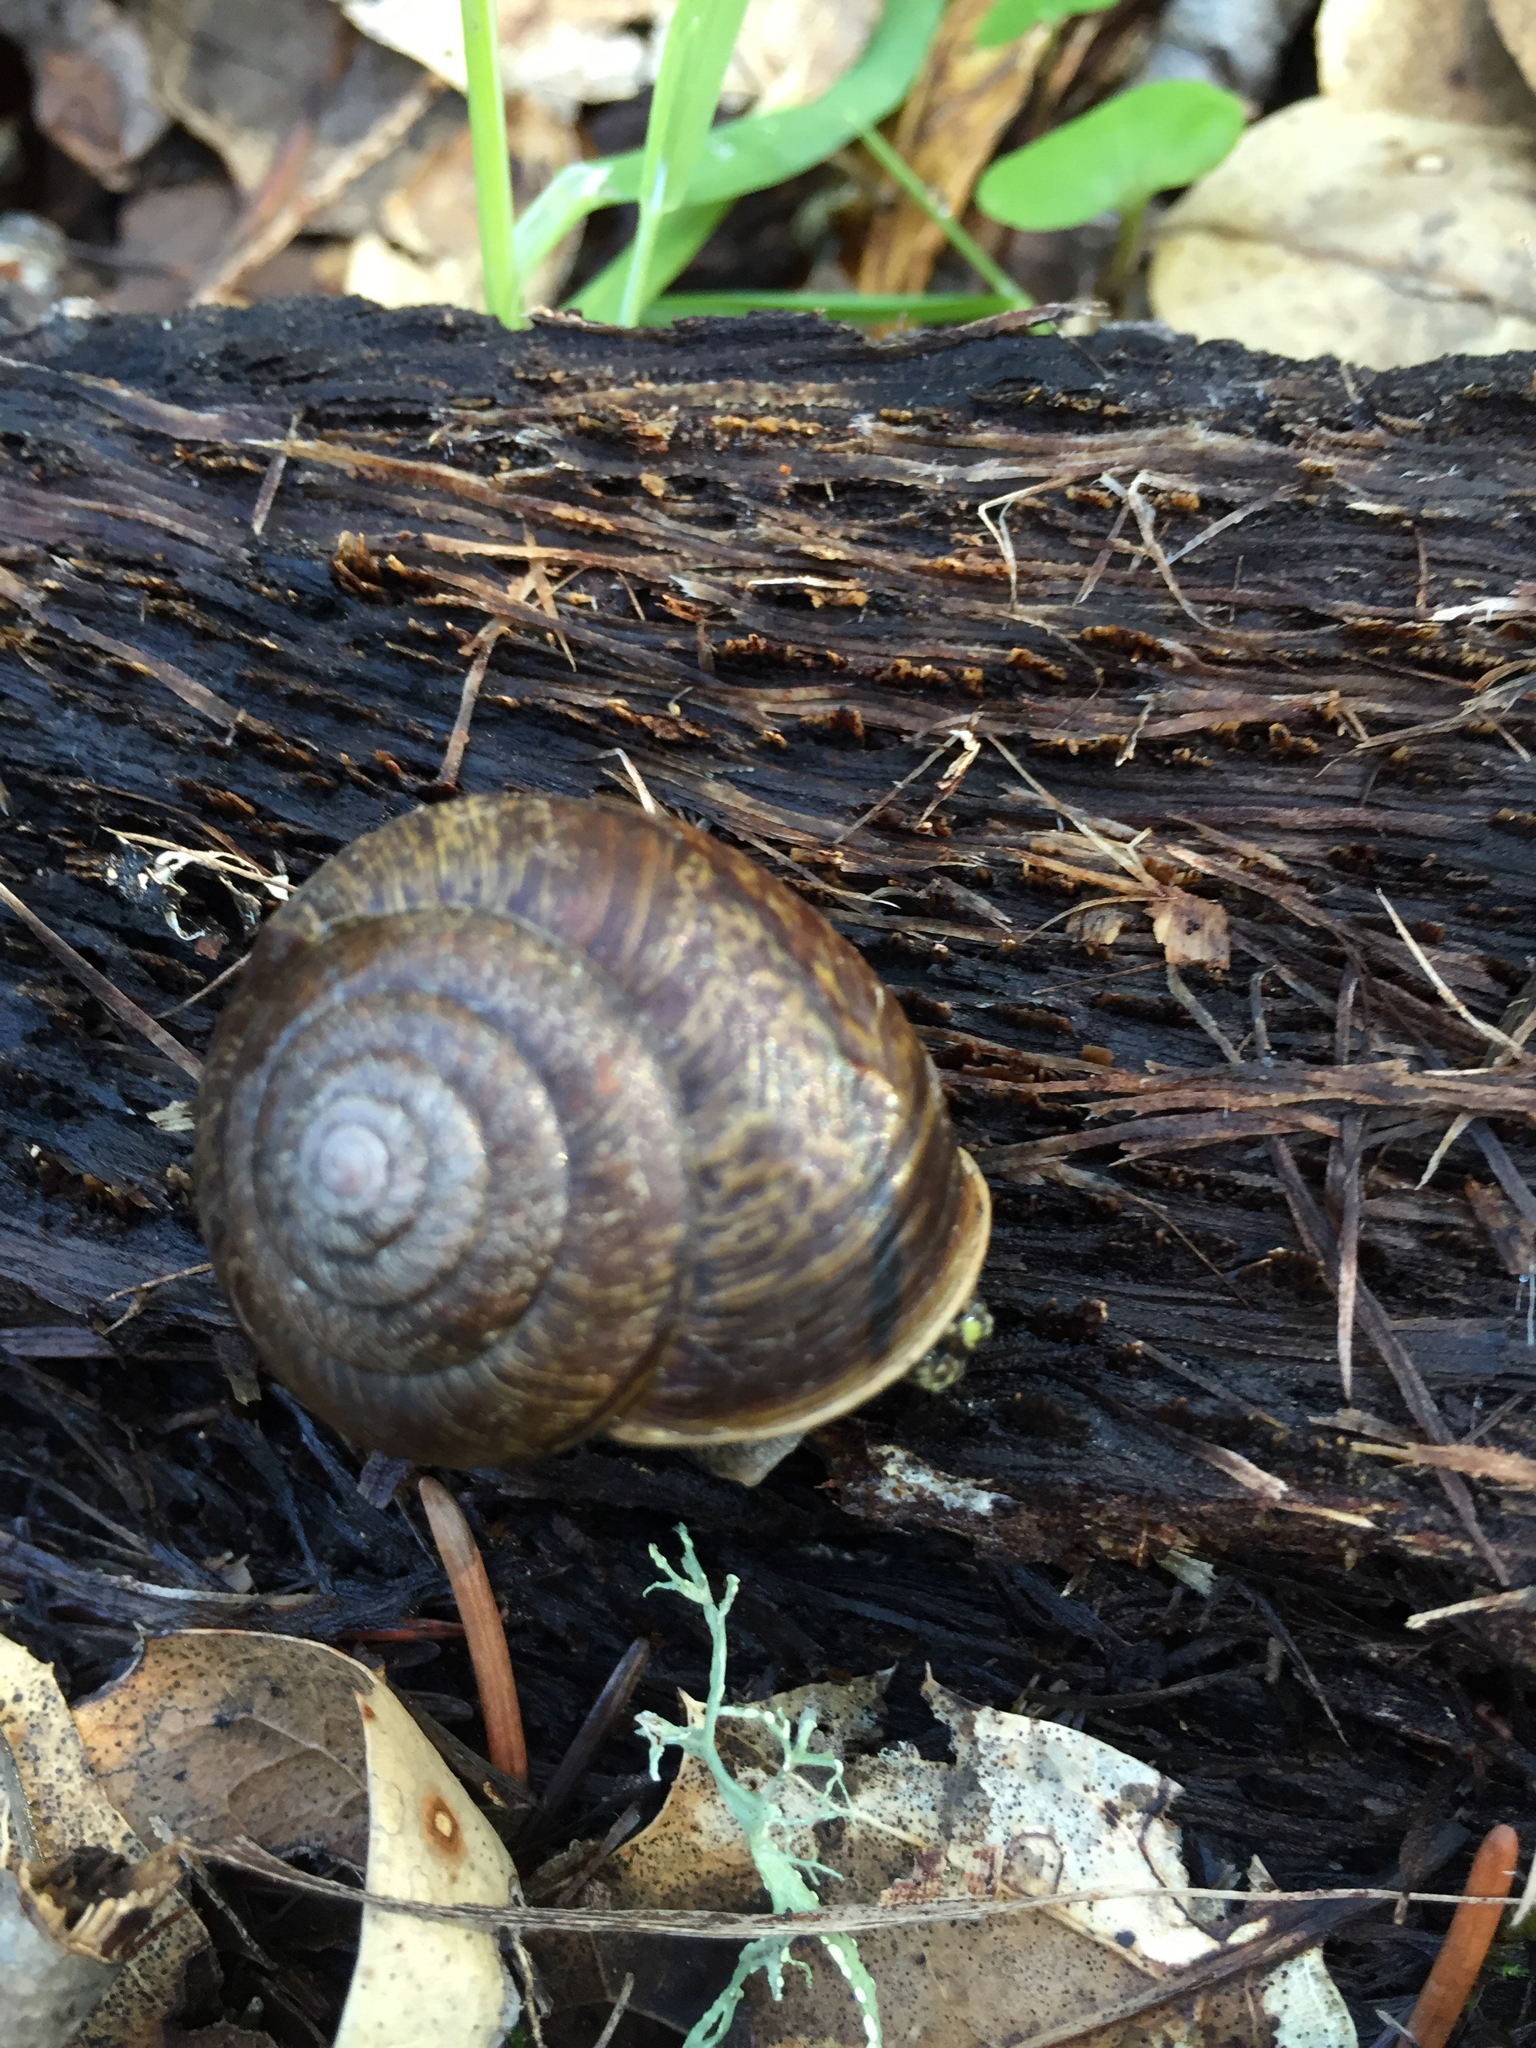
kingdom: Animalia
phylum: Mollusca
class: Gastropoda
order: Stylommatophora
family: Xanthonychidae
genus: Helminthoglypta
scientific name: Helminthoglypta arrosa
